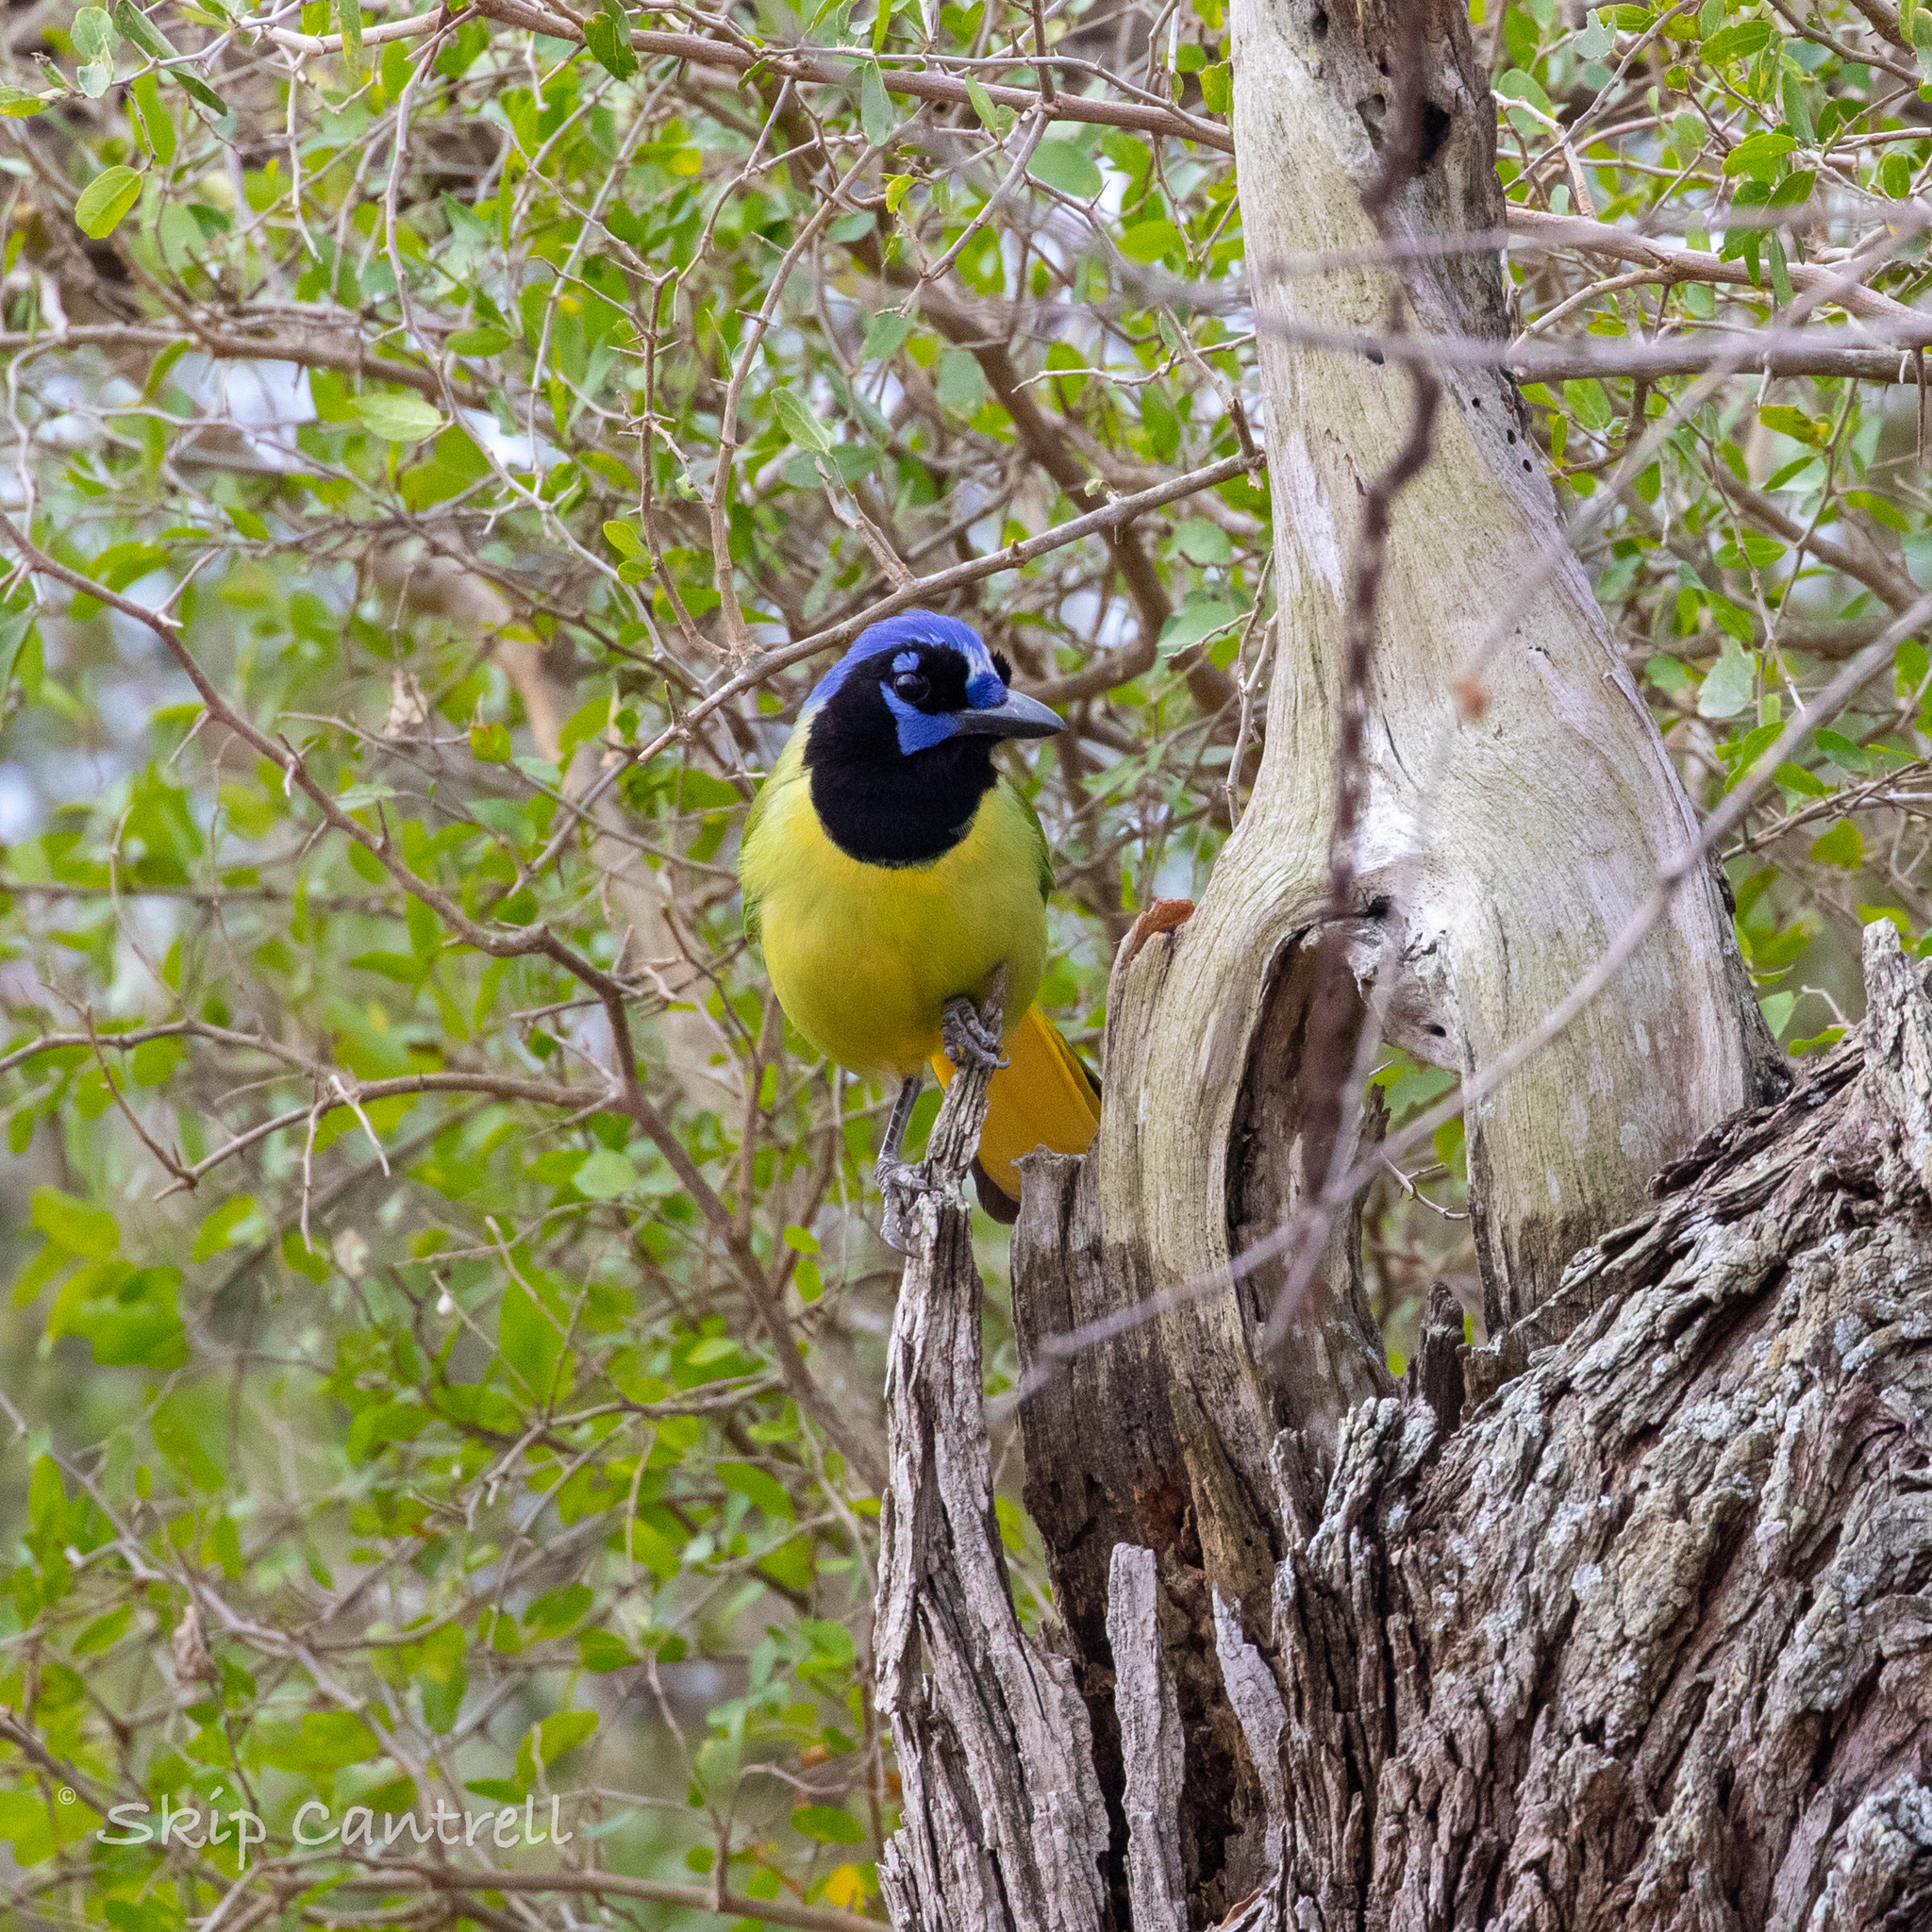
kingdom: Animalia
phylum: Chordata
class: Aves
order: Passeriformes
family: Corvidae
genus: Cyanocorax
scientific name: Cyanocorax yncas
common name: Green jay
